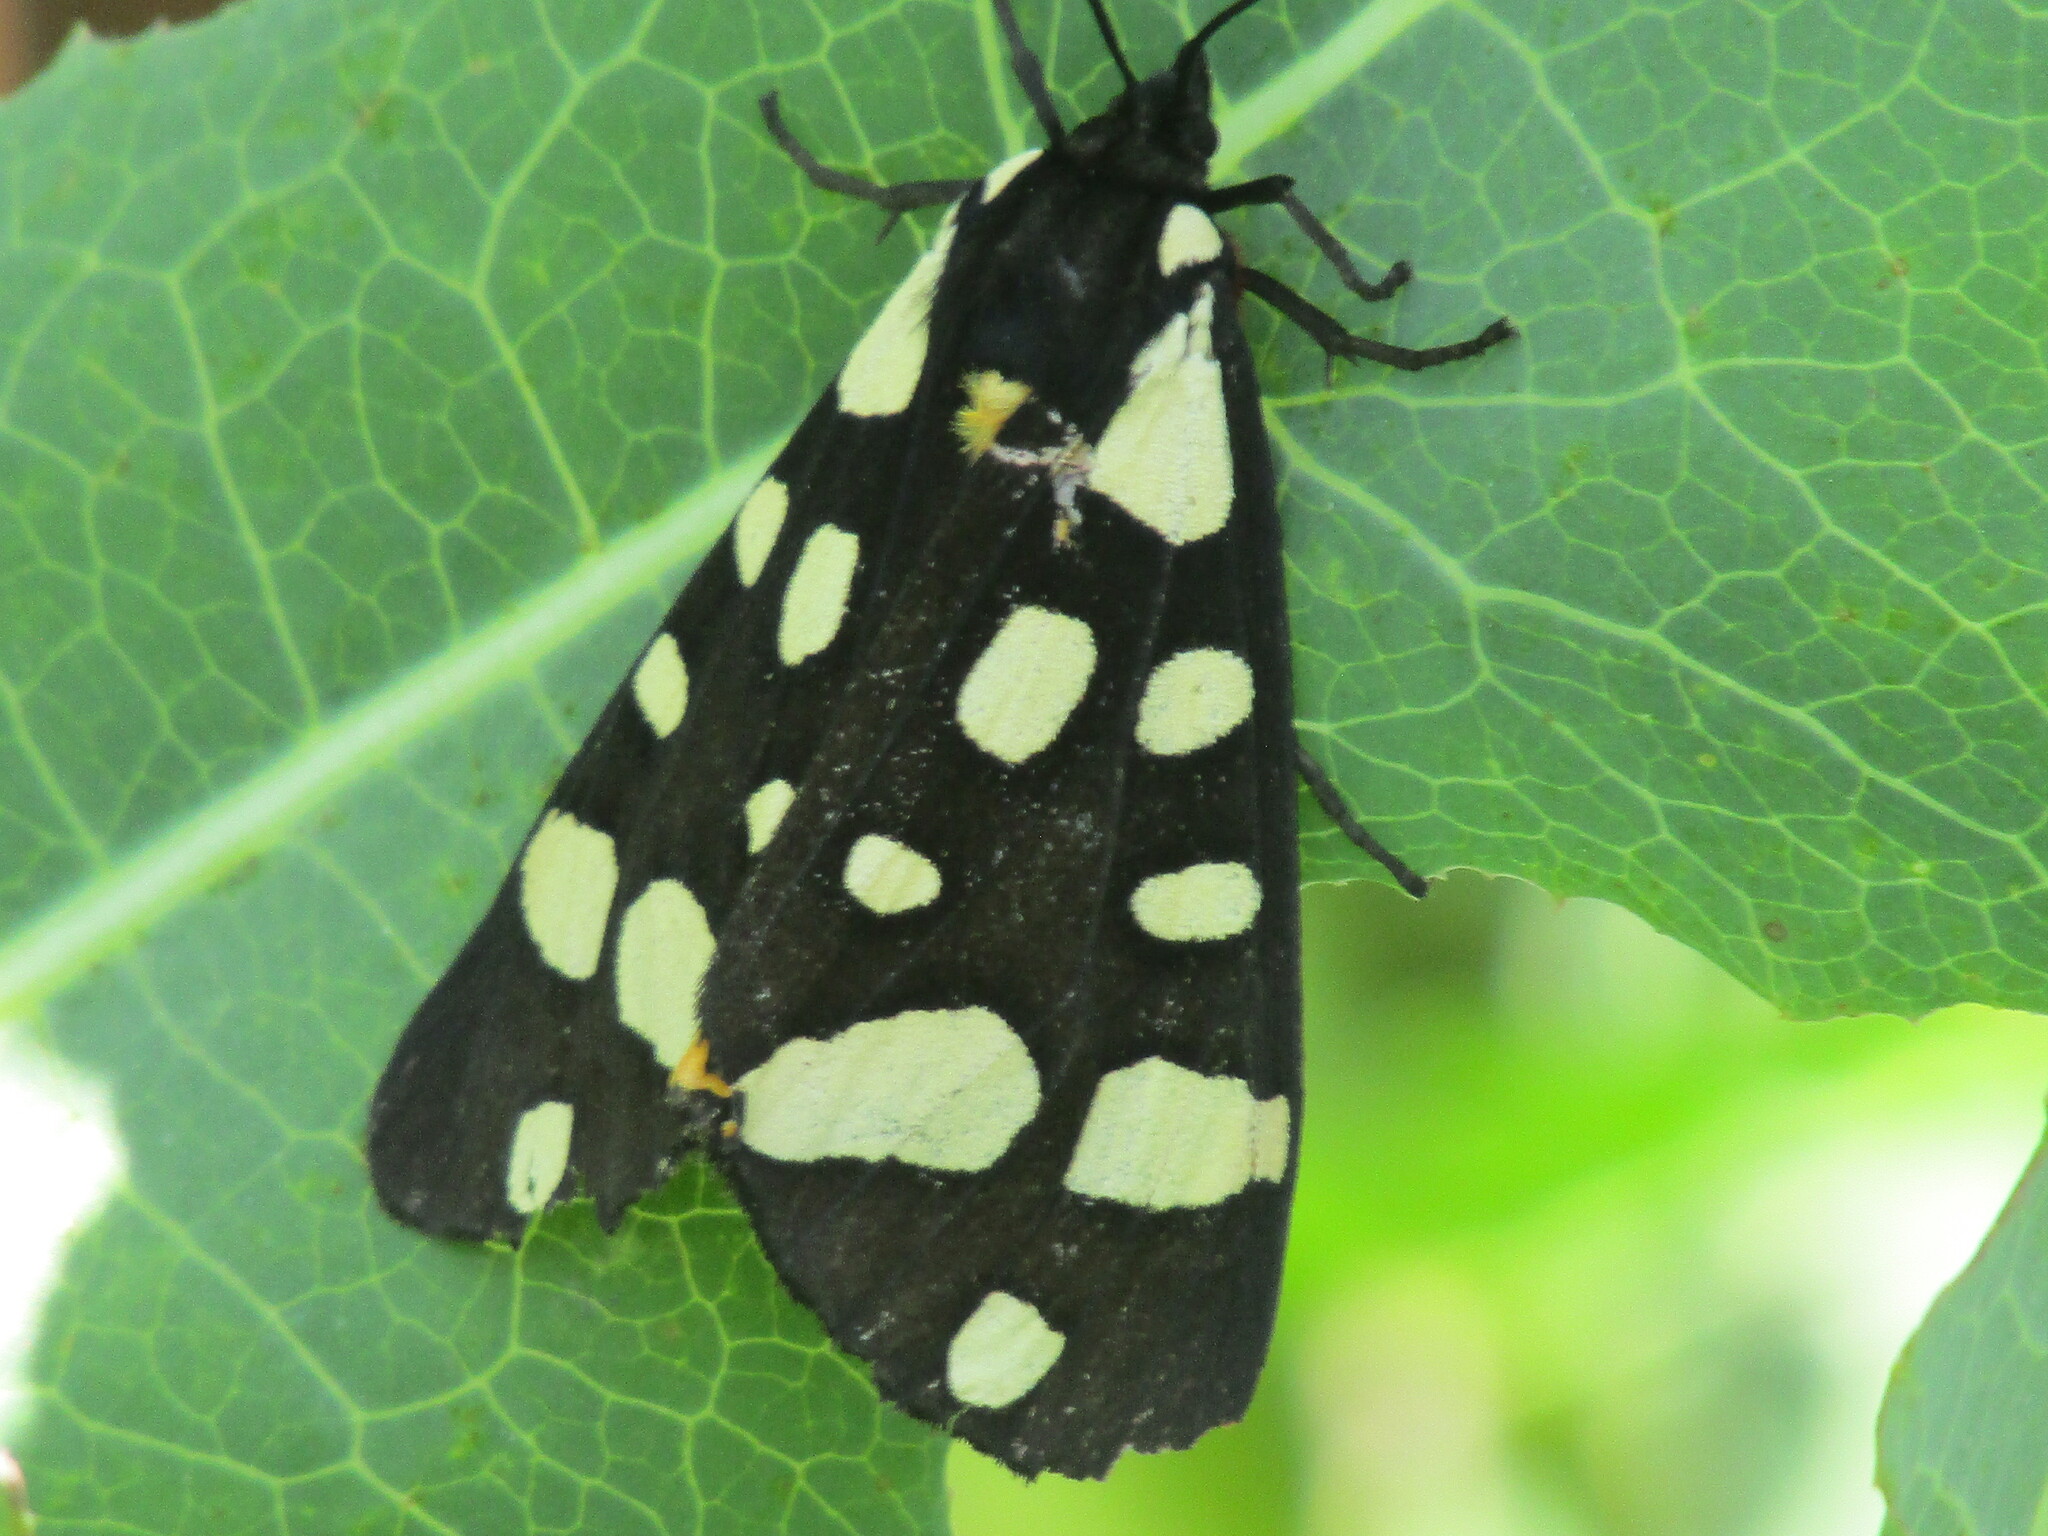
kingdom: Animalia
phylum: Arthropoda
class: Insecta
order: Lepidoptera
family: Erebidae
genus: Epicallia
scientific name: Epicallia villica
